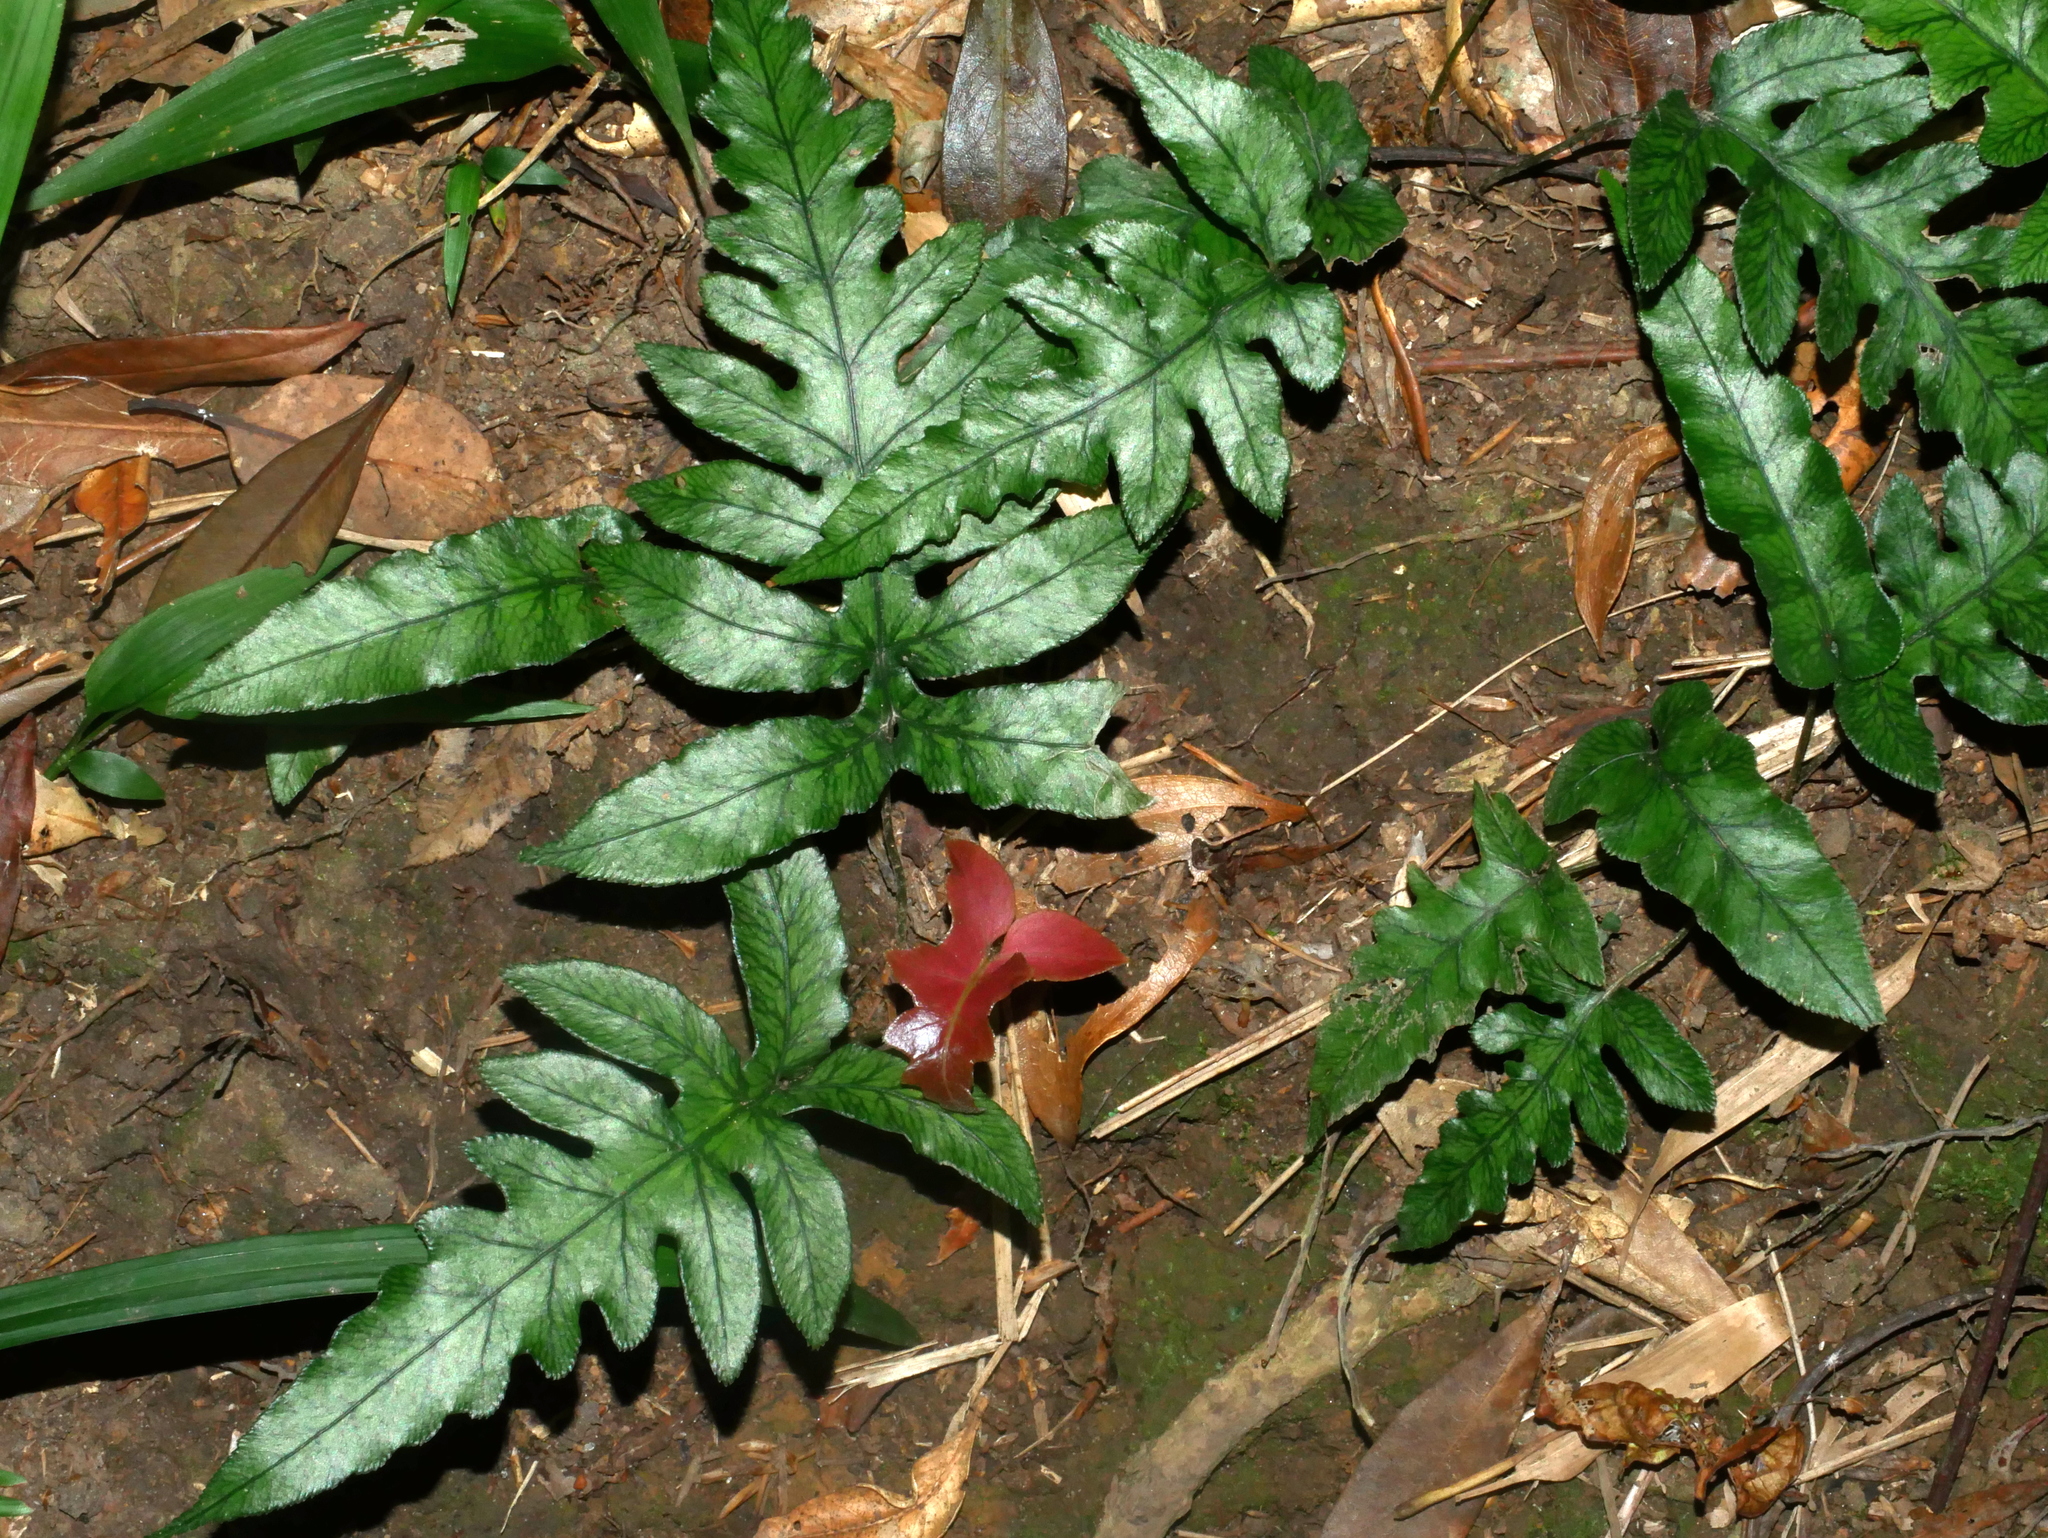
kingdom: Plantae
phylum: Tracheophyta
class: Polypodiopsida
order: Polypodiales
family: Blechnaceae
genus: Woodwardia
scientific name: Woodwardia kempii
